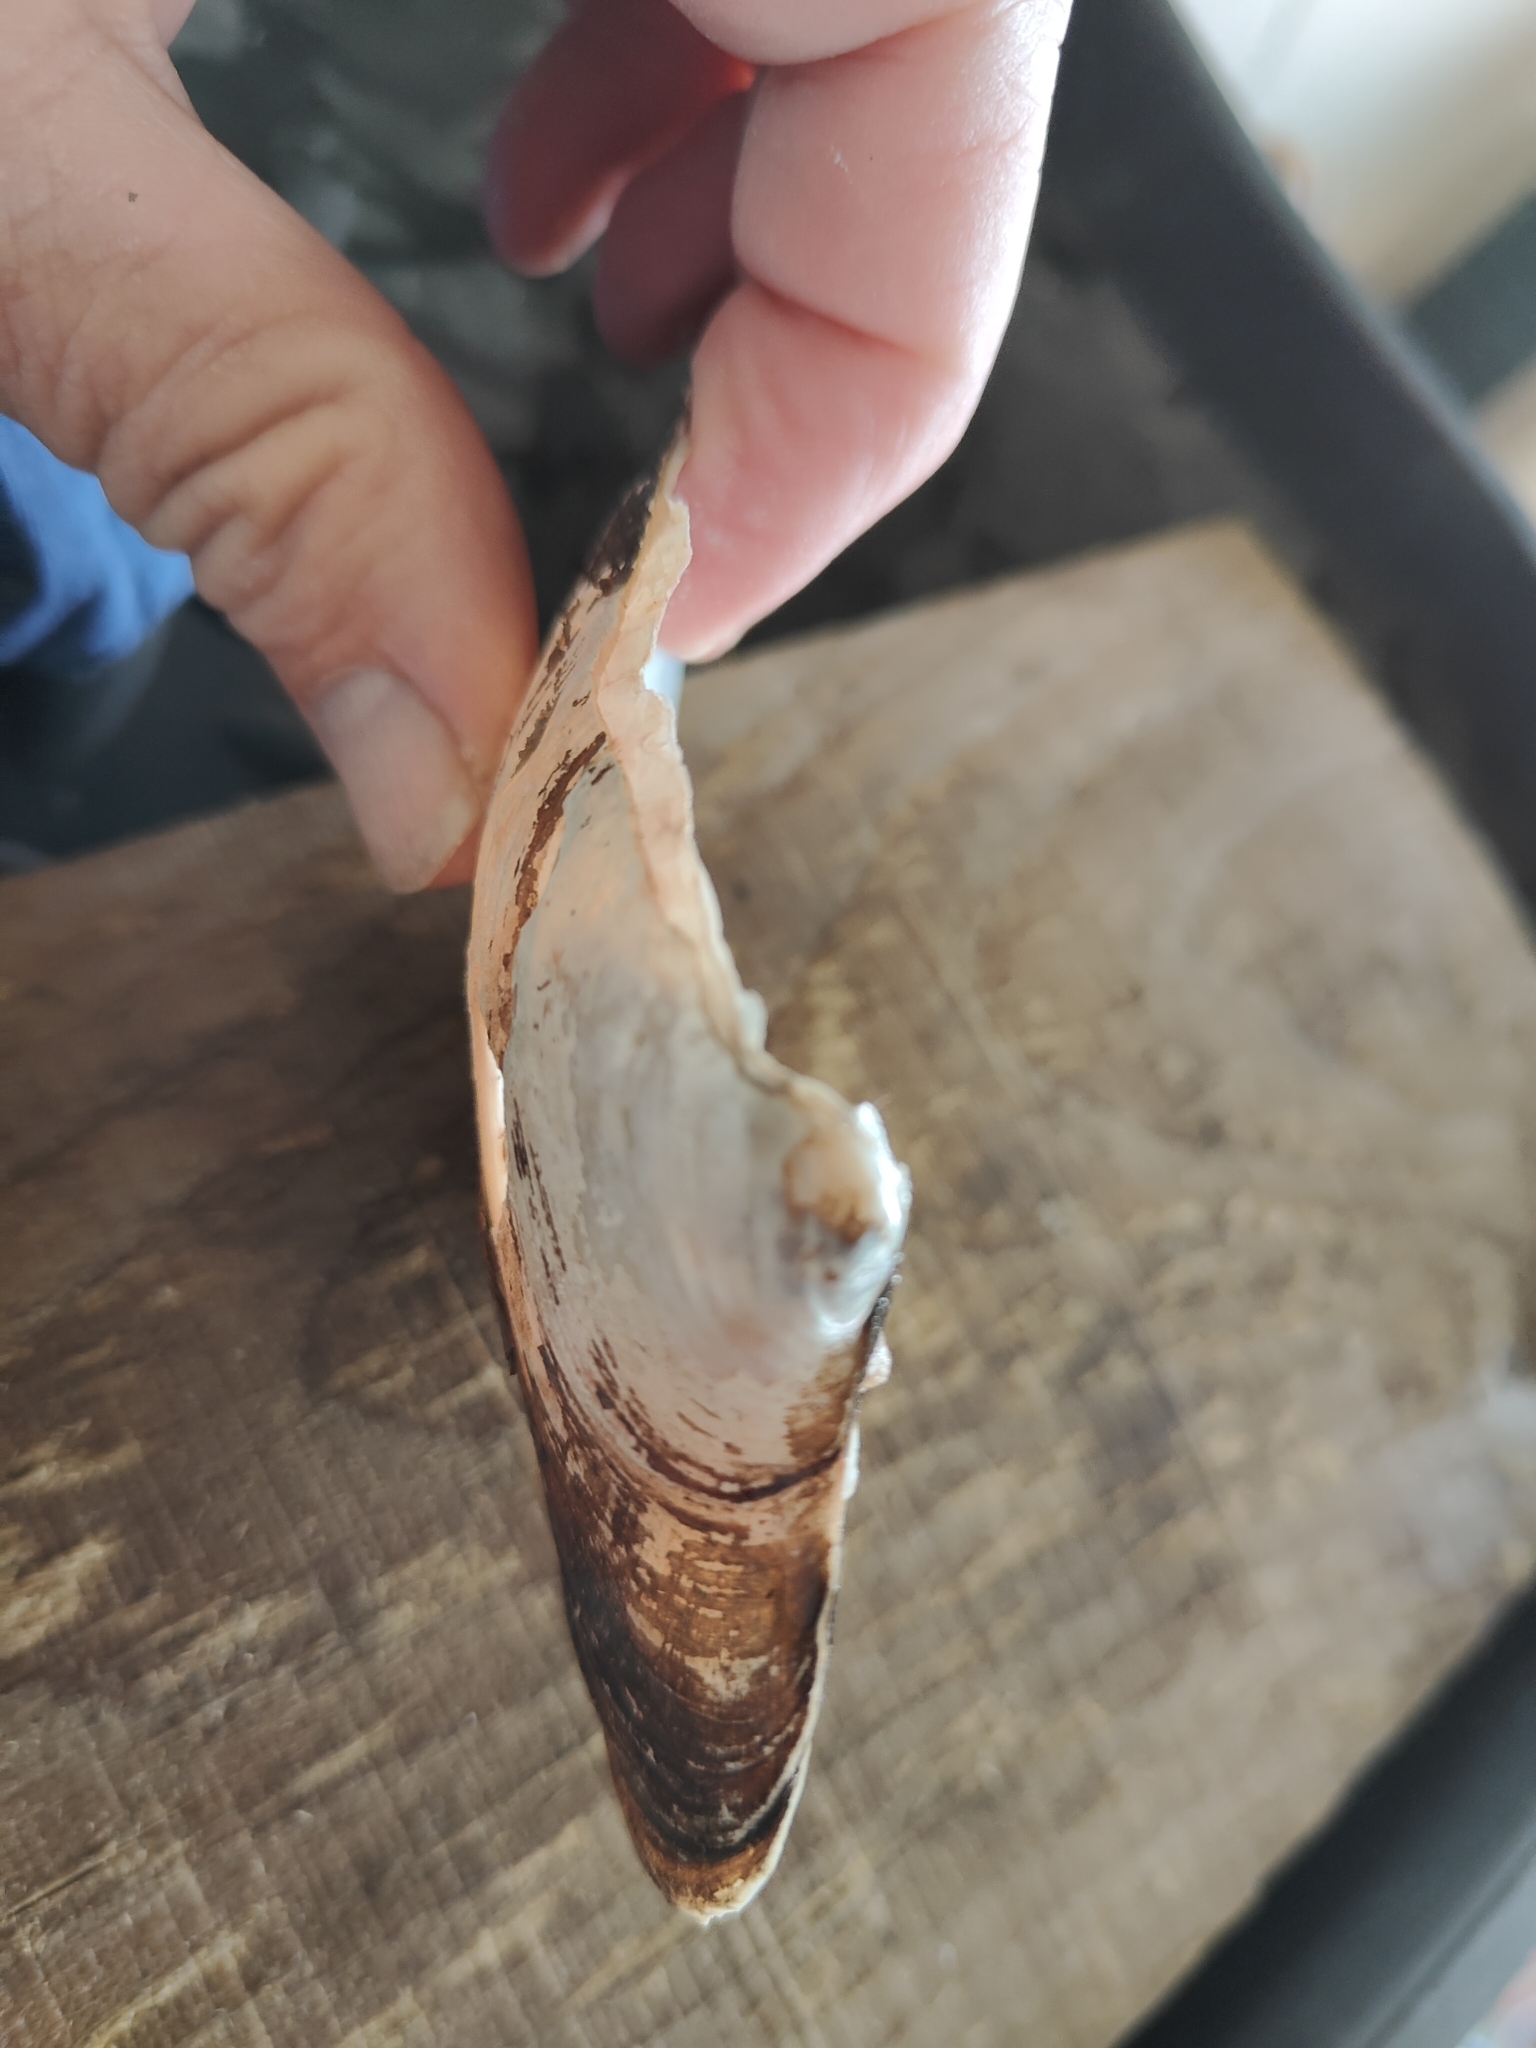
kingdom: Animalia
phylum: Mollusca
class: Bivalvia
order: Unionida
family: Unionidae
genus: Potamilus
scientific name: Potamilus alatus
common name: Pink heelsplitter
